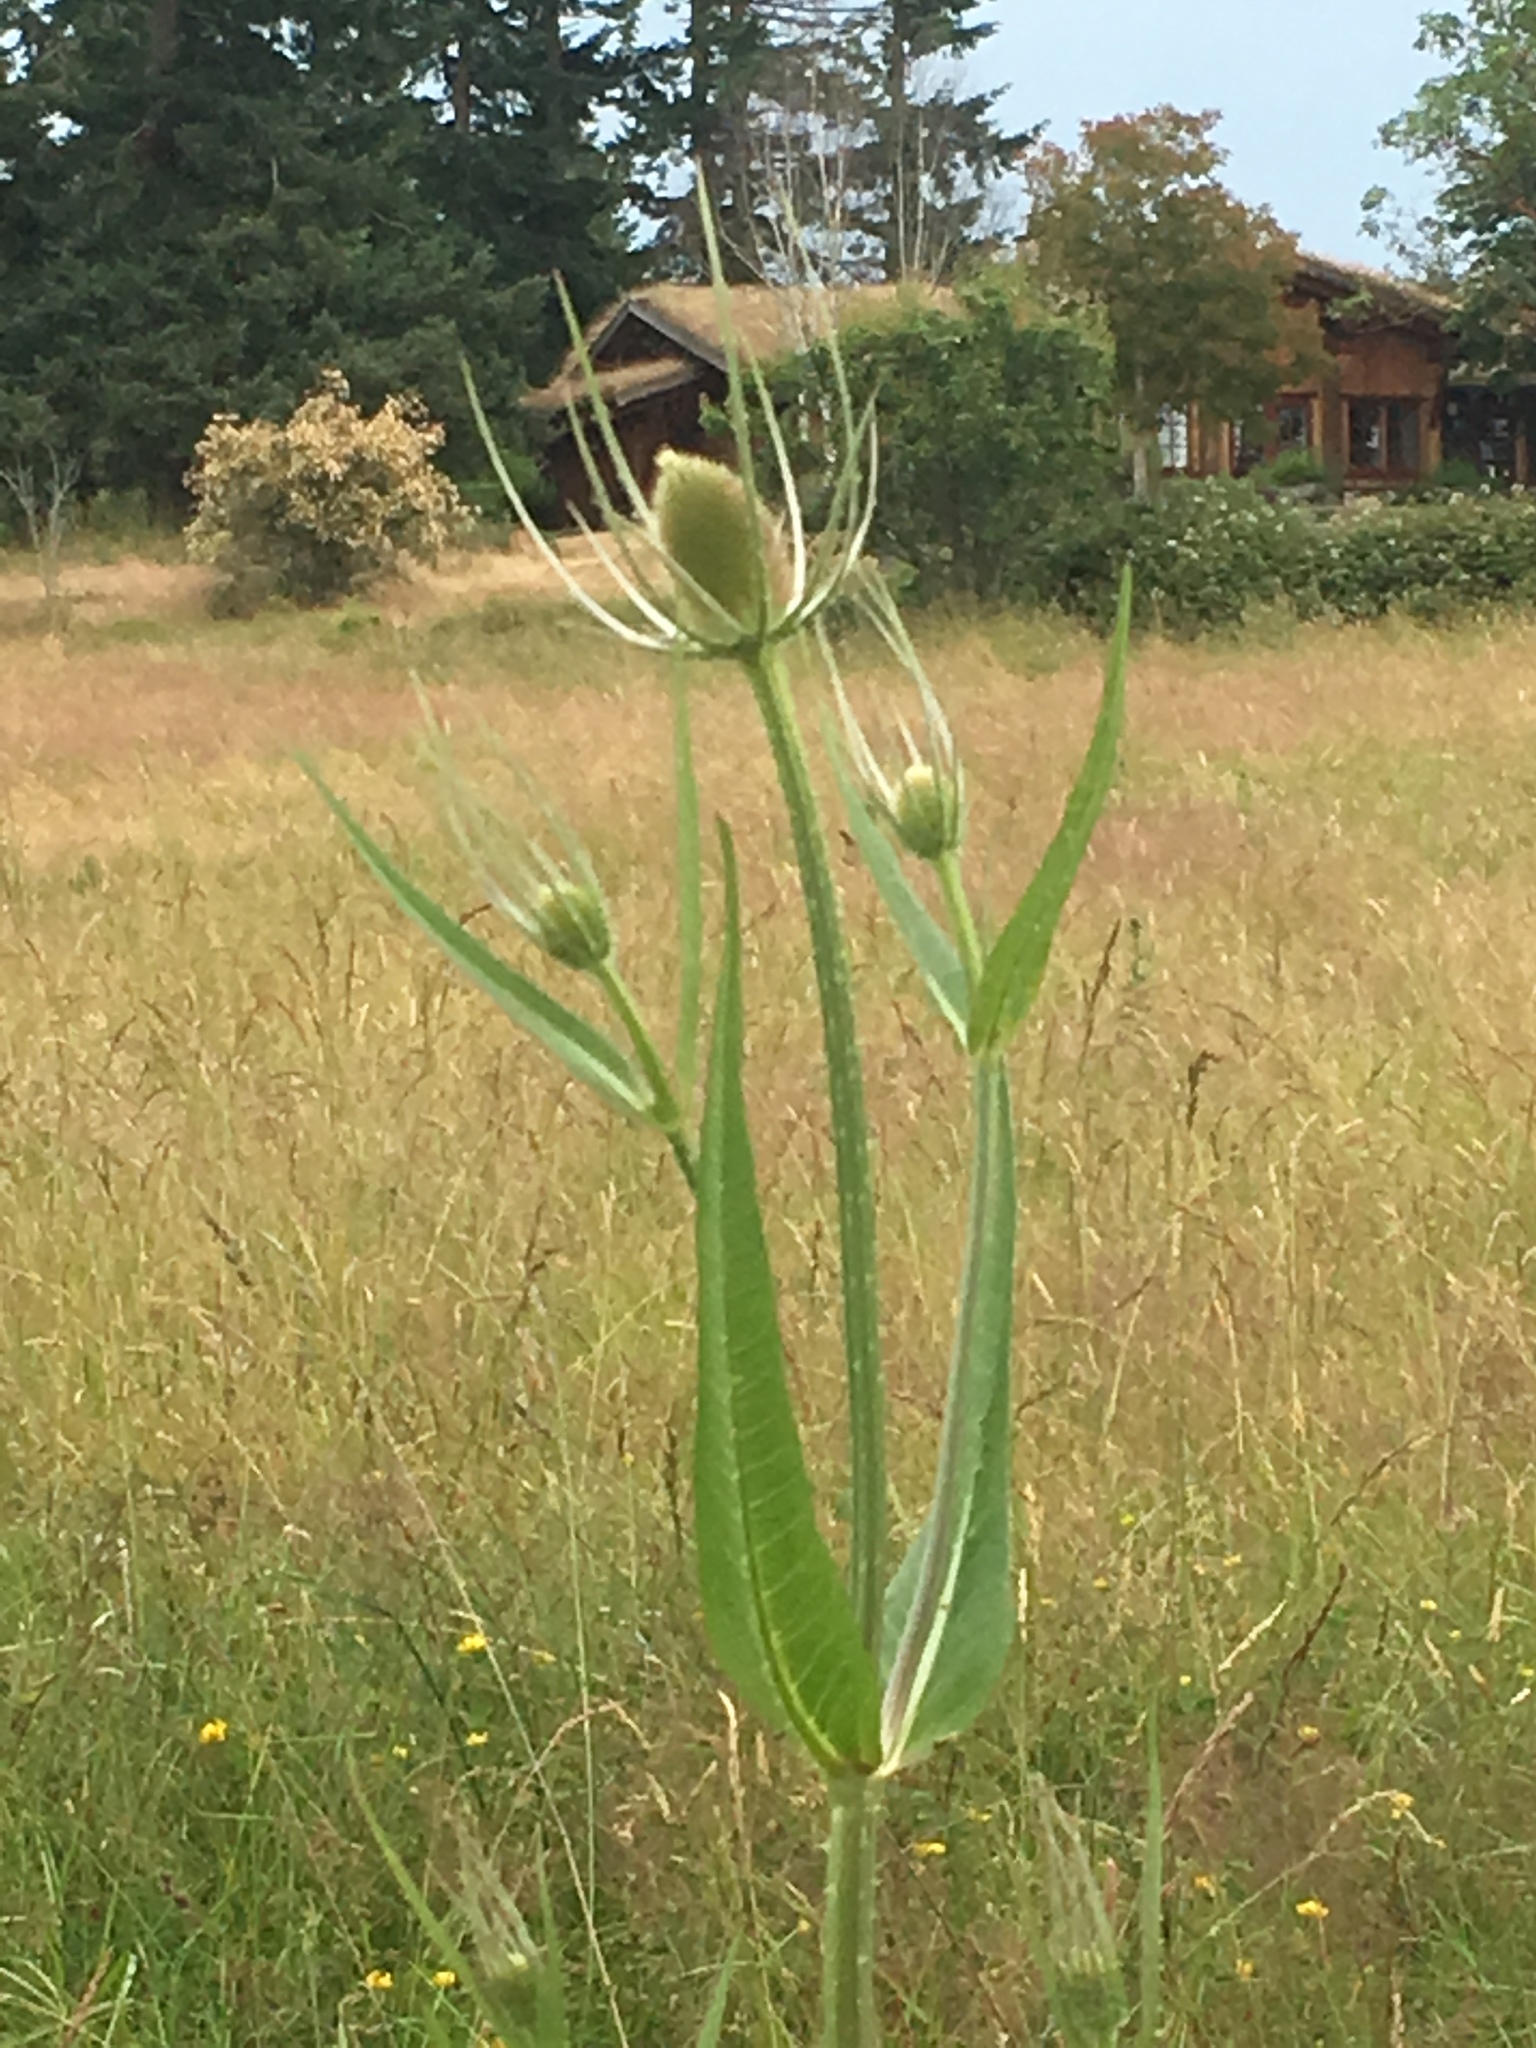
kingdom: Plantae
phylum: Tracheophyta
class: Magnoliopsida
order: Dipsacales
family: Caprifoliaceae
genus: Dipsacus
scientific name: Dipsacus fullonum
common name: Teasel
